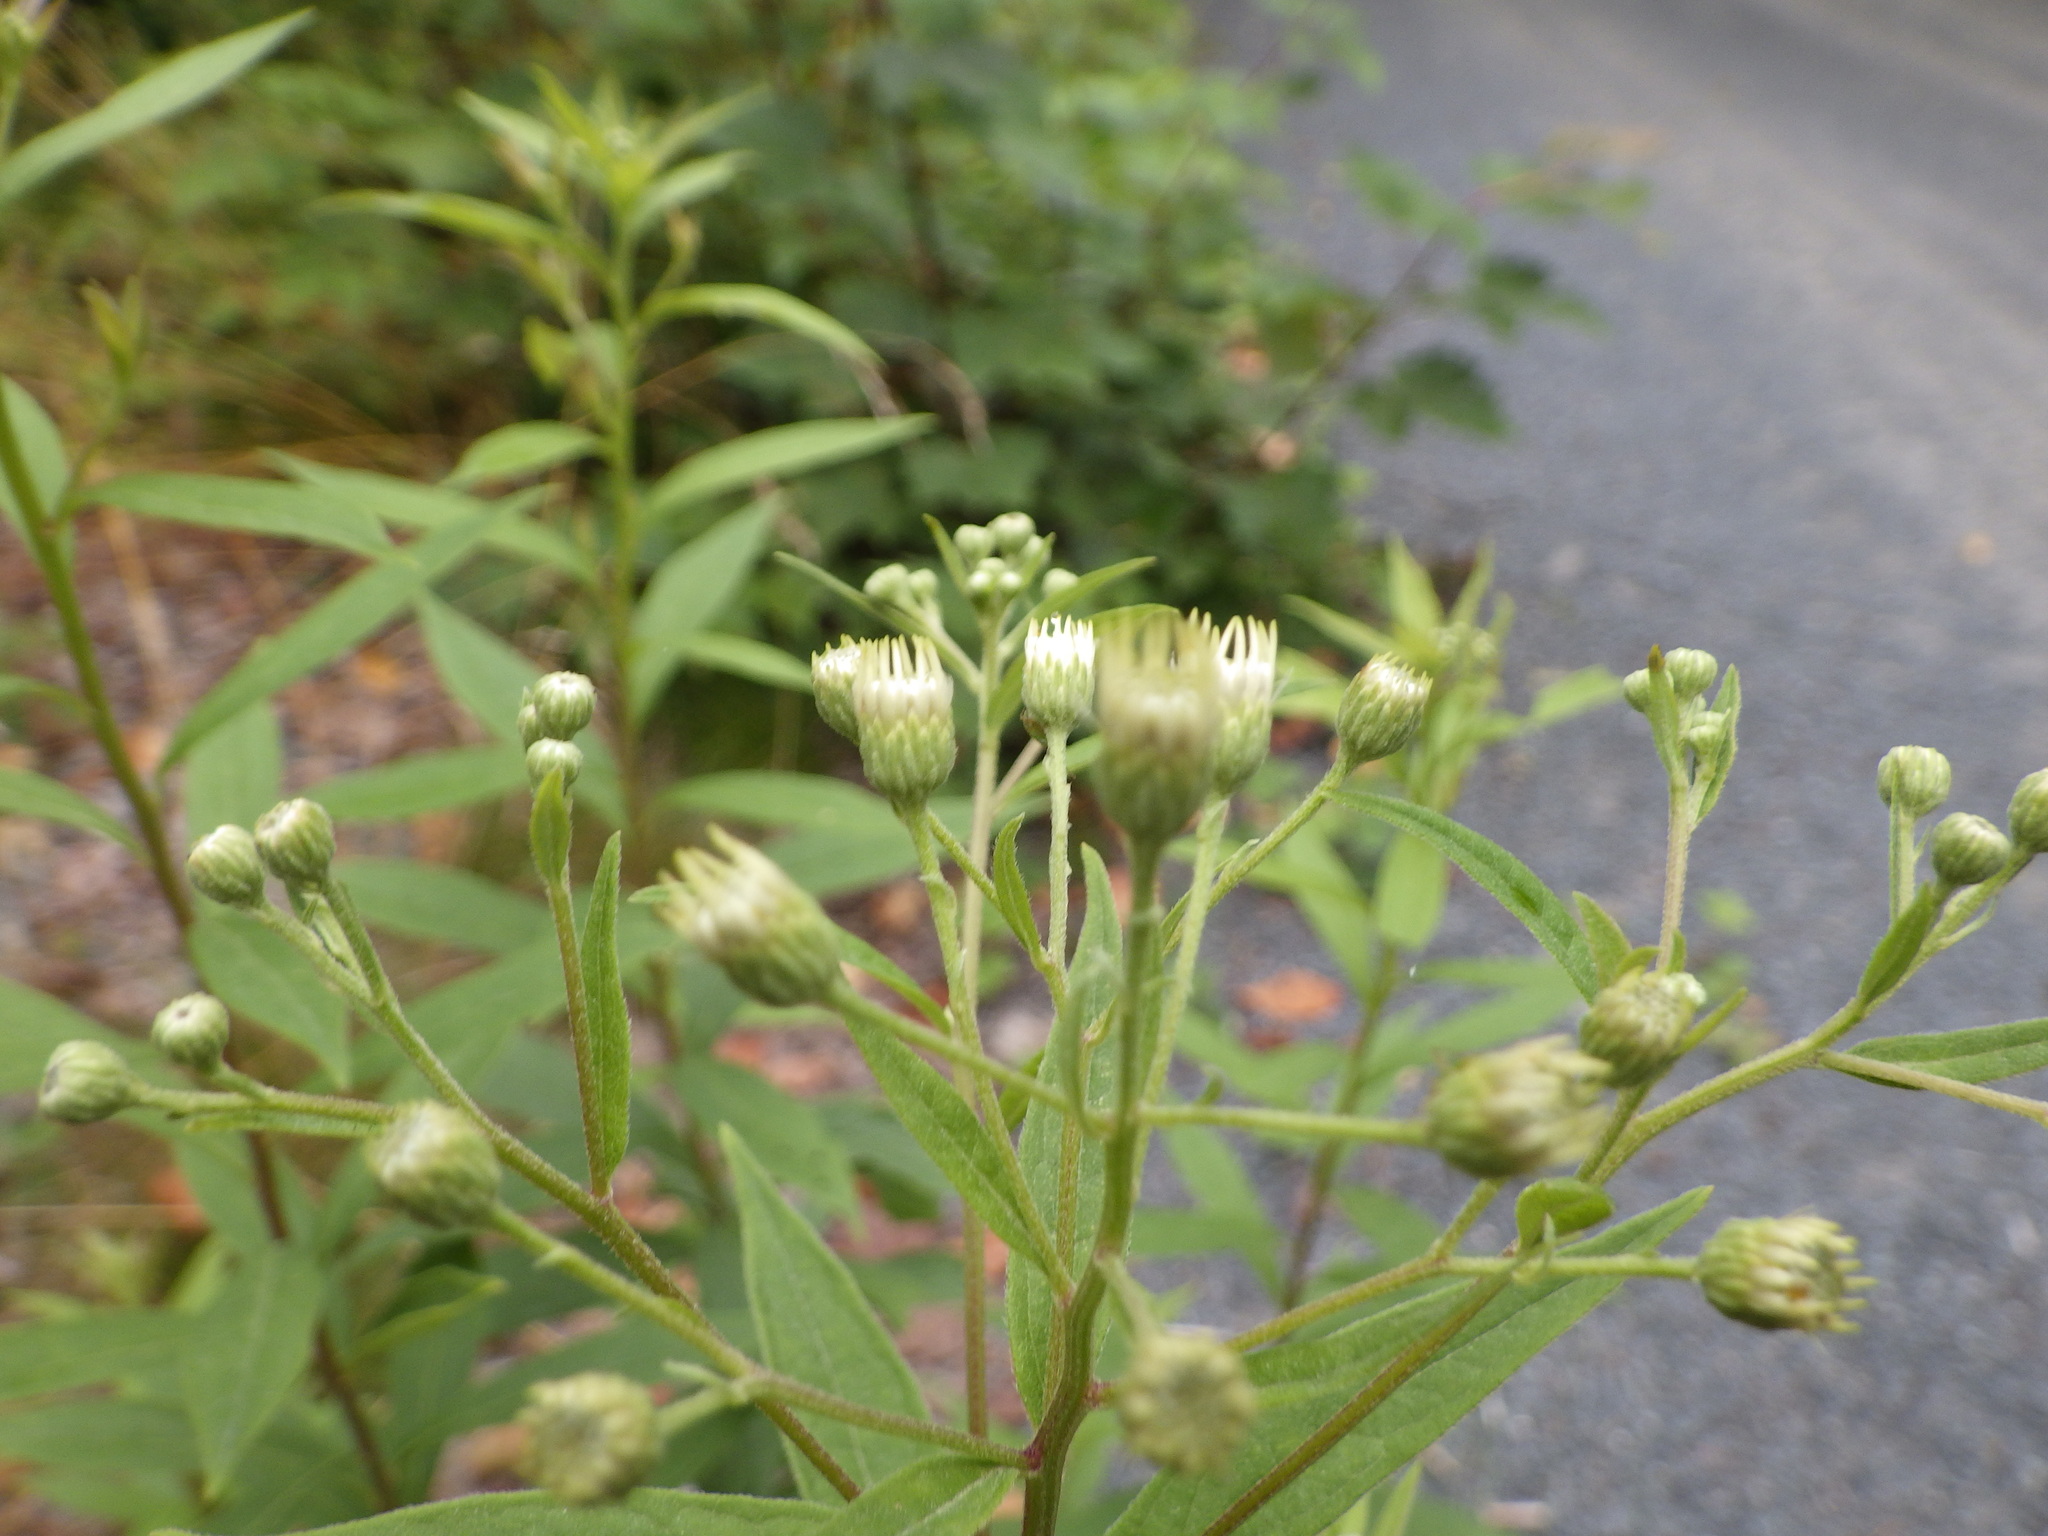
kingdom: Plantae
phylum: Tracheophyta
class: Magnoliopsida
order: Asterales
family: Asteraceae
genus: Doellingeria
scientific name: Doellingeria umbellata
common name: Flat-top white aster
